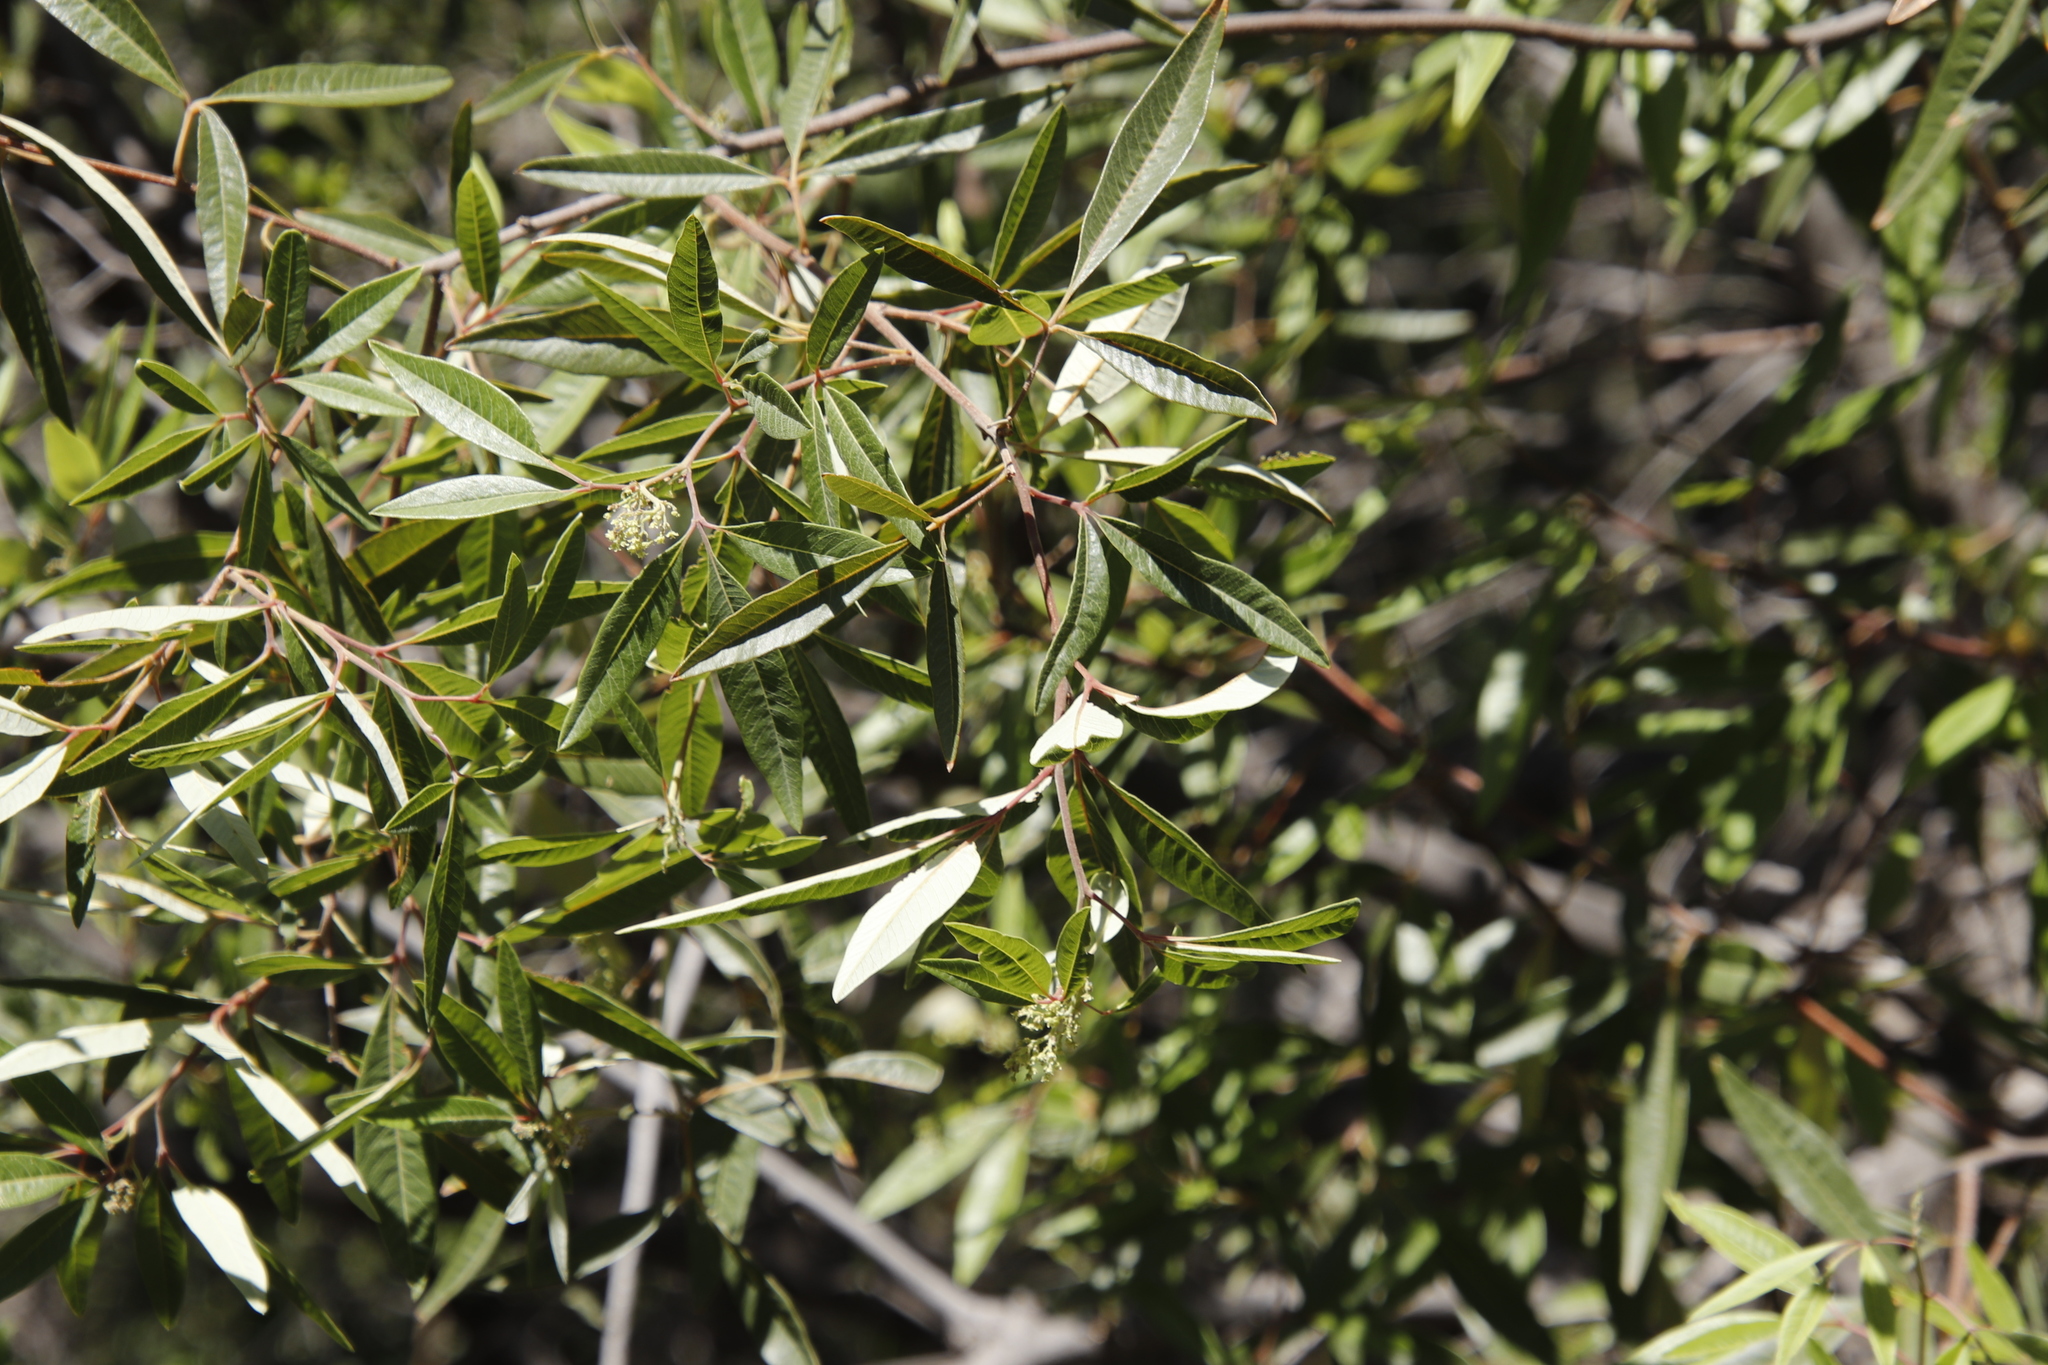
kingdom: Plantae
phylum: Tracheophyta
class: Magnoliopsida
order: Sapindales
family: Anacardiaceae
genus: Searsia
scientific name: Searsia angustifolia
